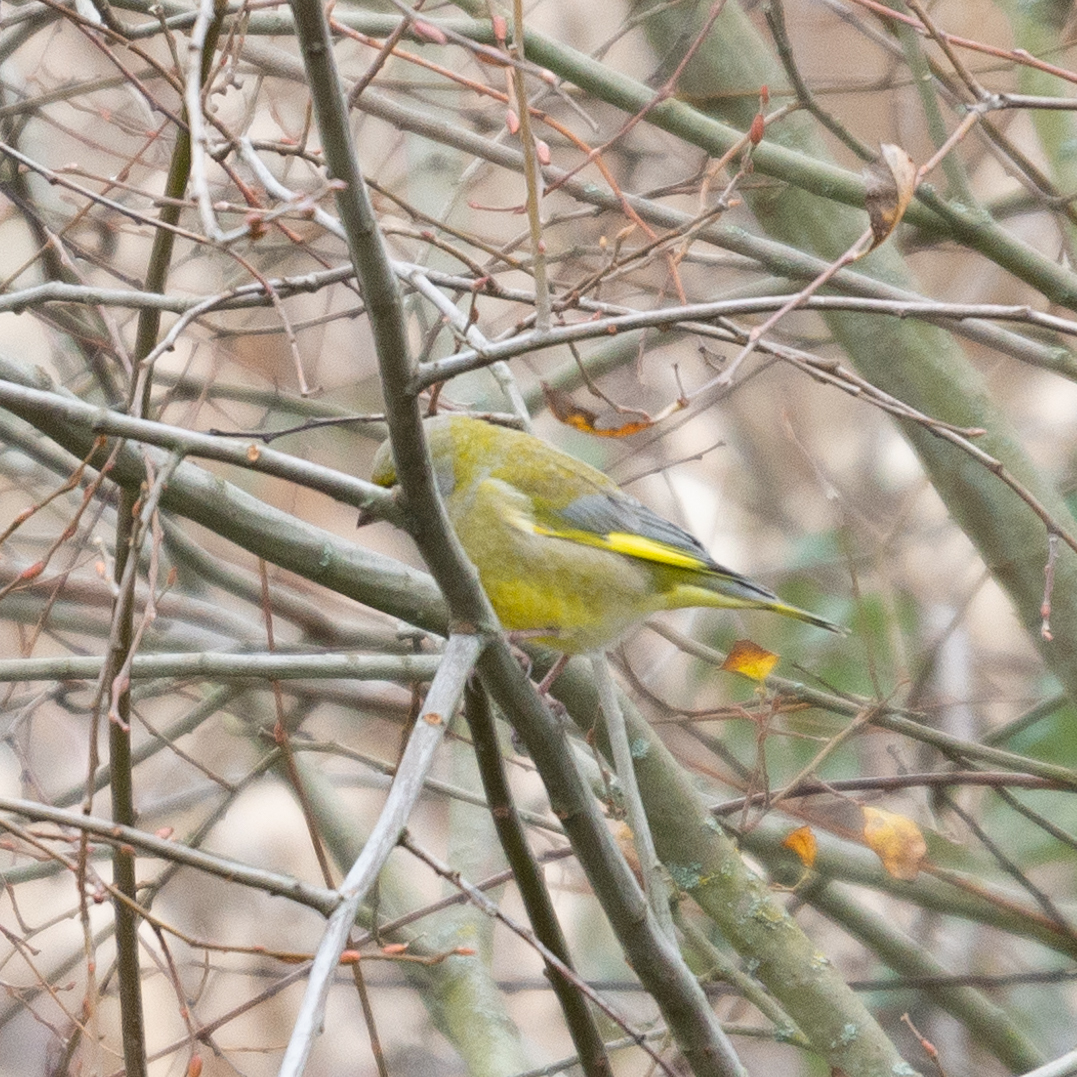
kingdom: Plantae
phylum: Tracheophyta
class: Liliopsida
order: Poales
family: Poaceae
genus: Chloris
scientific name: Chloris chloris
